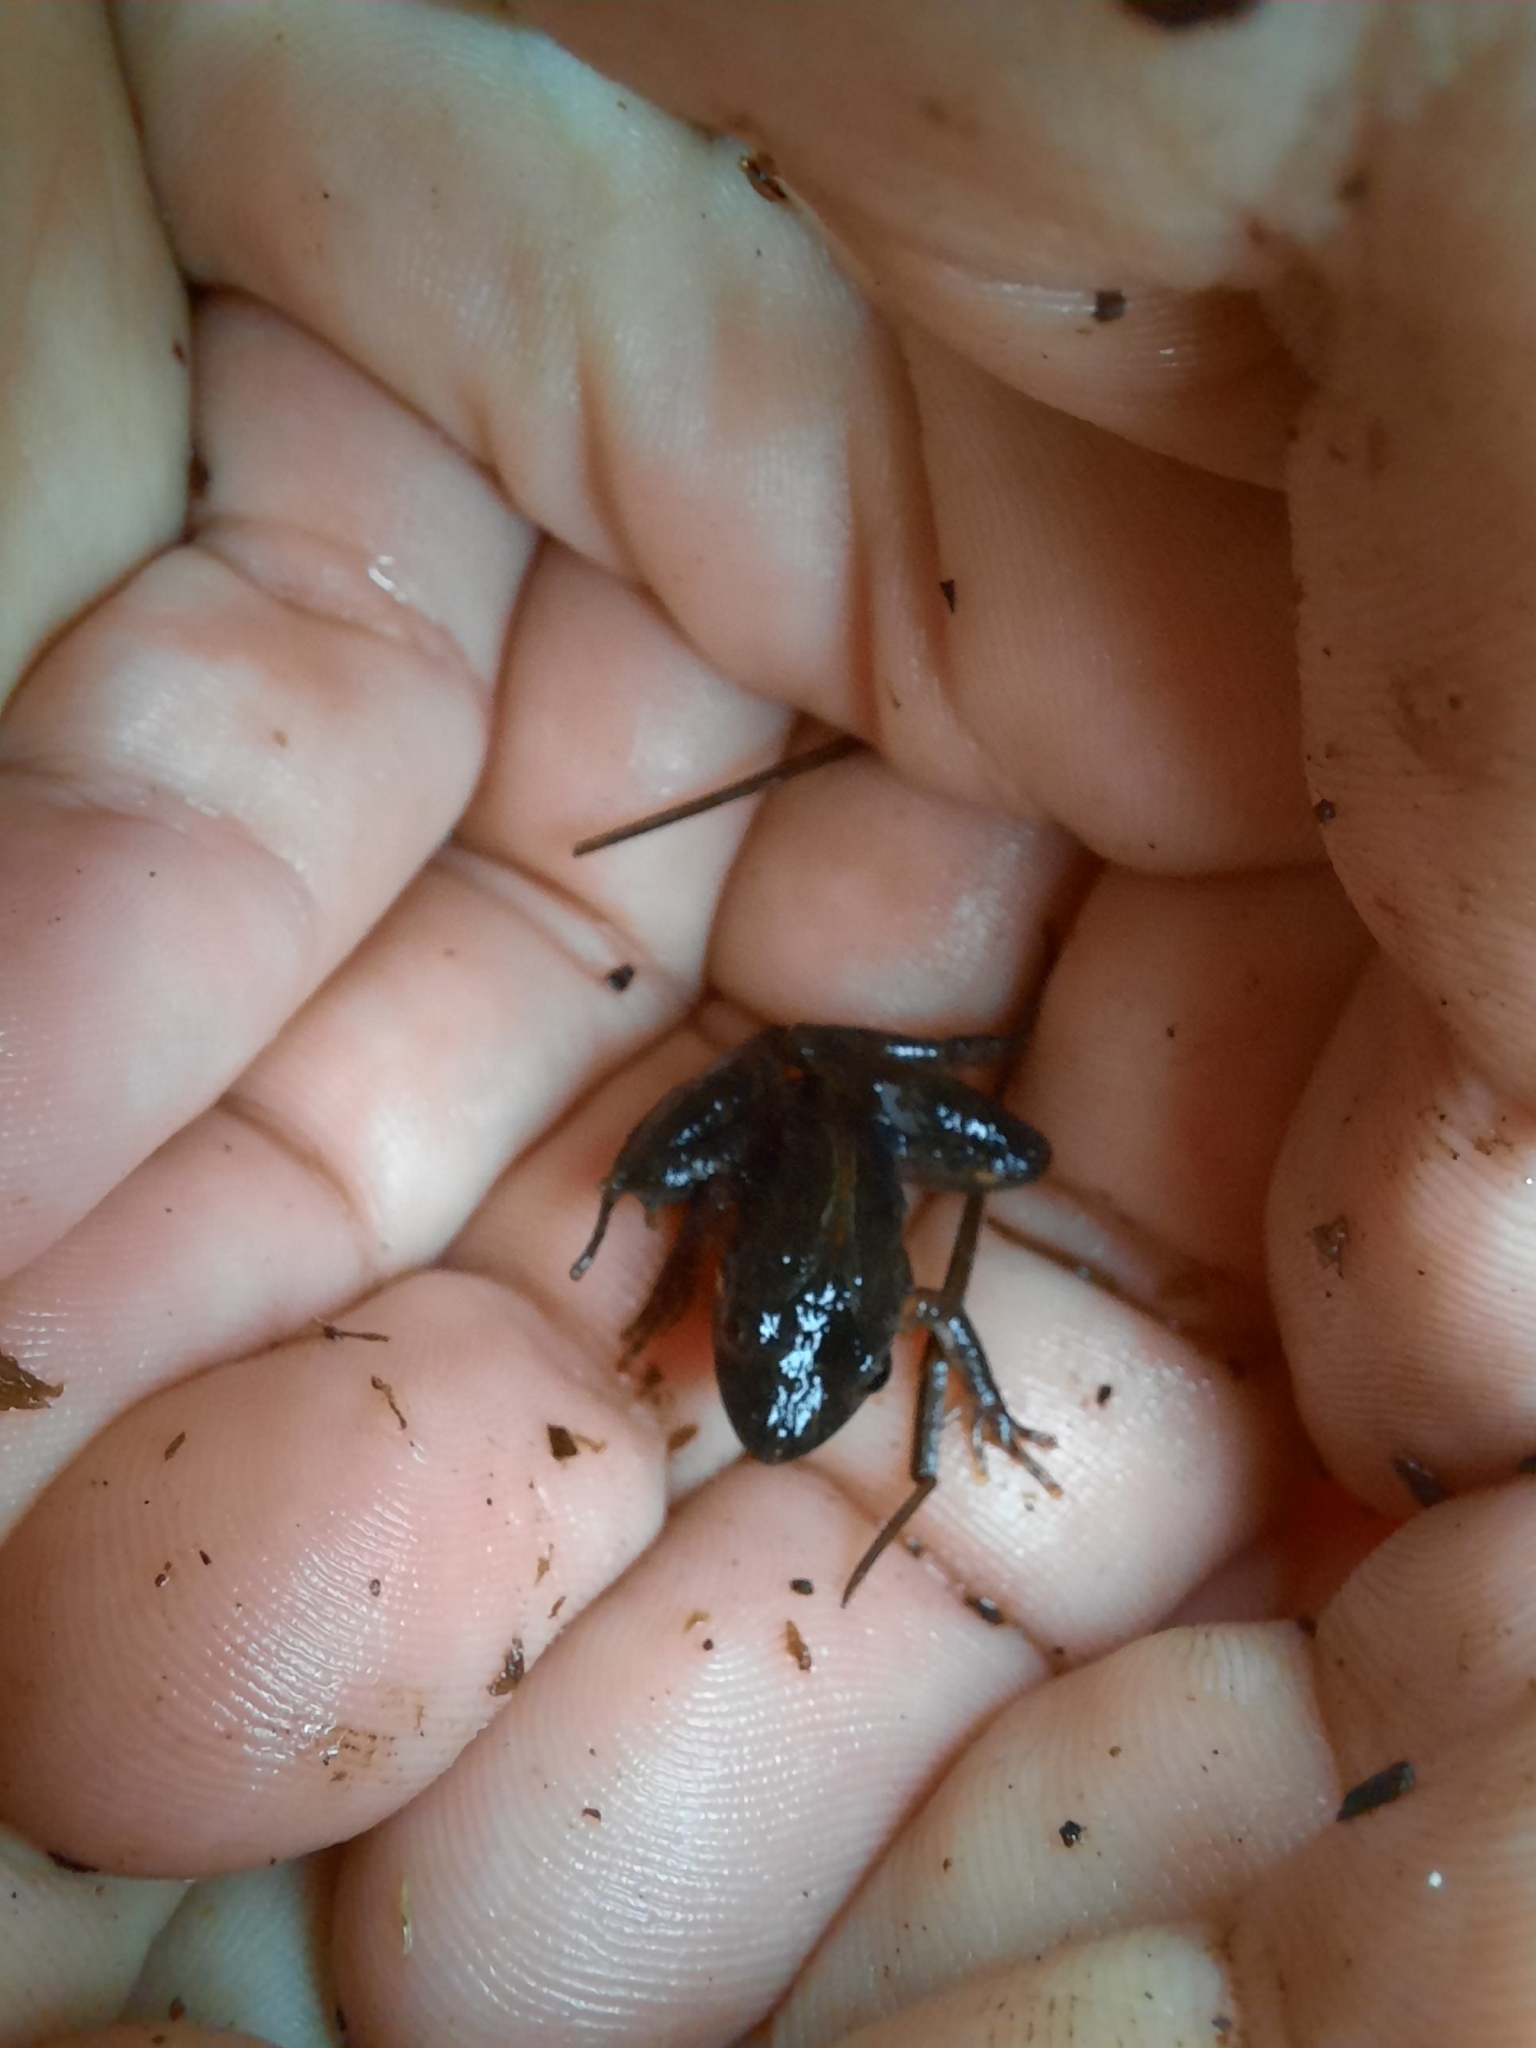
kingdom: Animalia
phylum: Chordata
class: Amphibia
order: Anura
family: Hylidae
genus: Acris
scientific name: Acris gryllus
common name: Southern cricket frog
